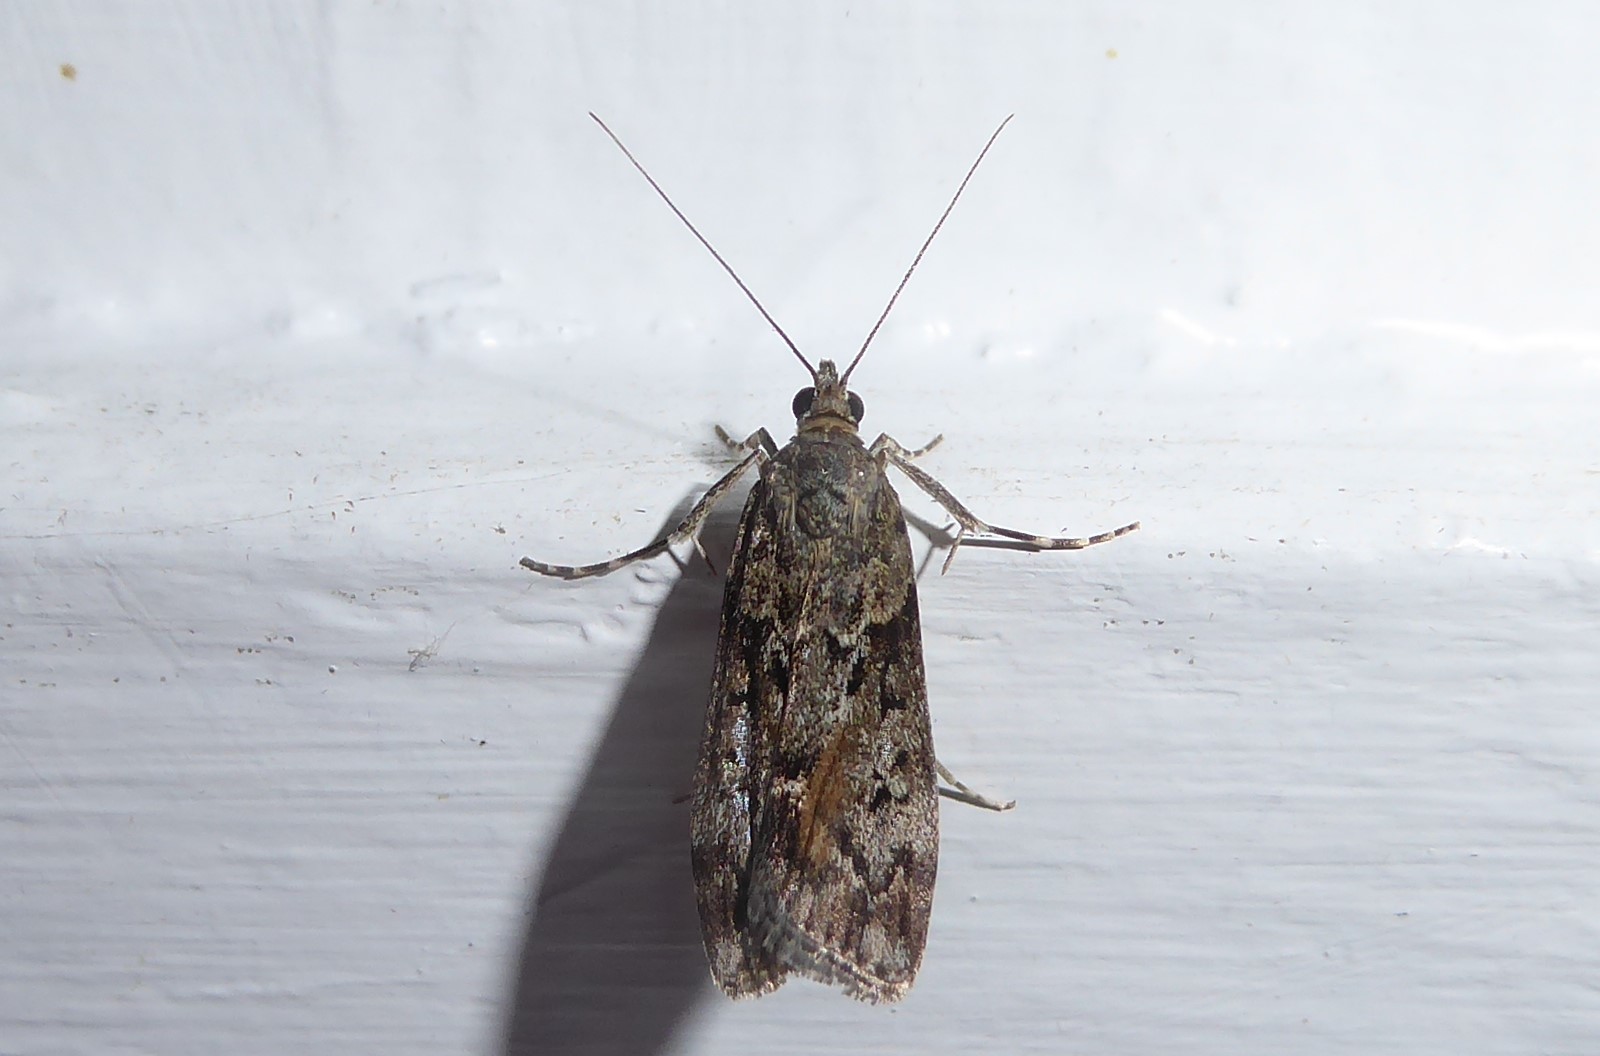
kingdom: Animalia
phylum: Arthropoda
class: Insecta
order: Lepidoptera
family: Crambidae
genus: Eudonia
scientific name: Eudonia submarginalis
